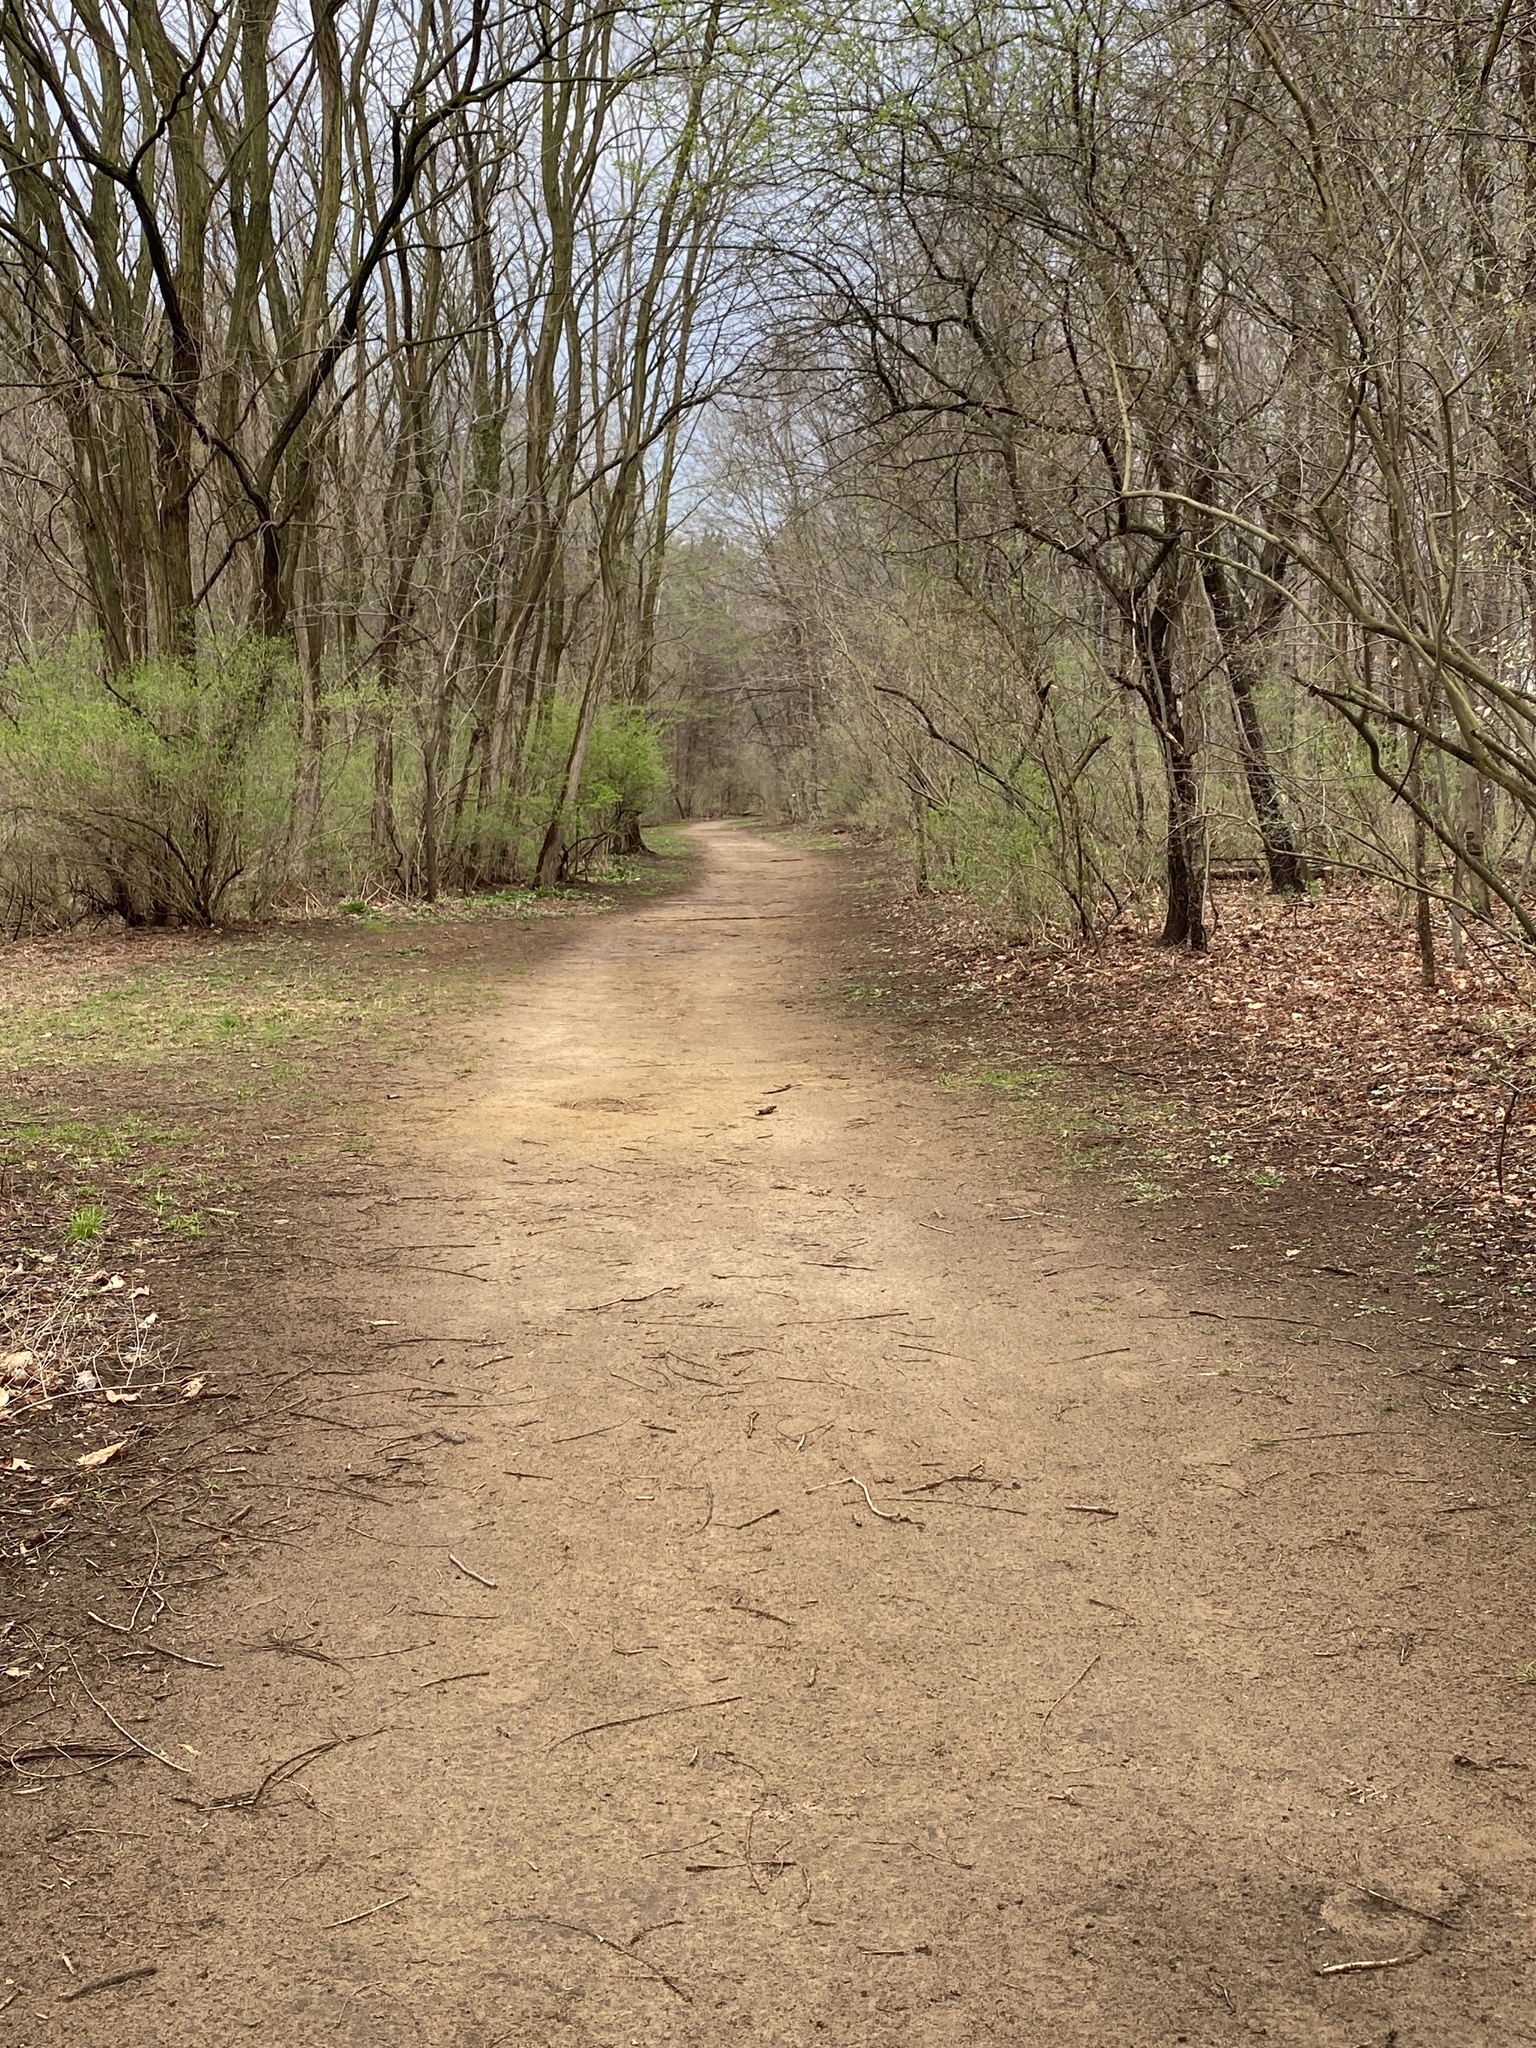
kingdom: Plantae
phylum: Tracheophyta
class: Liliopsida
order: Asparagales
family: Asparagaceae
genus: Maianthemum
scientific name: Maianthemum canadense
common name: False lily-of-the-valley
